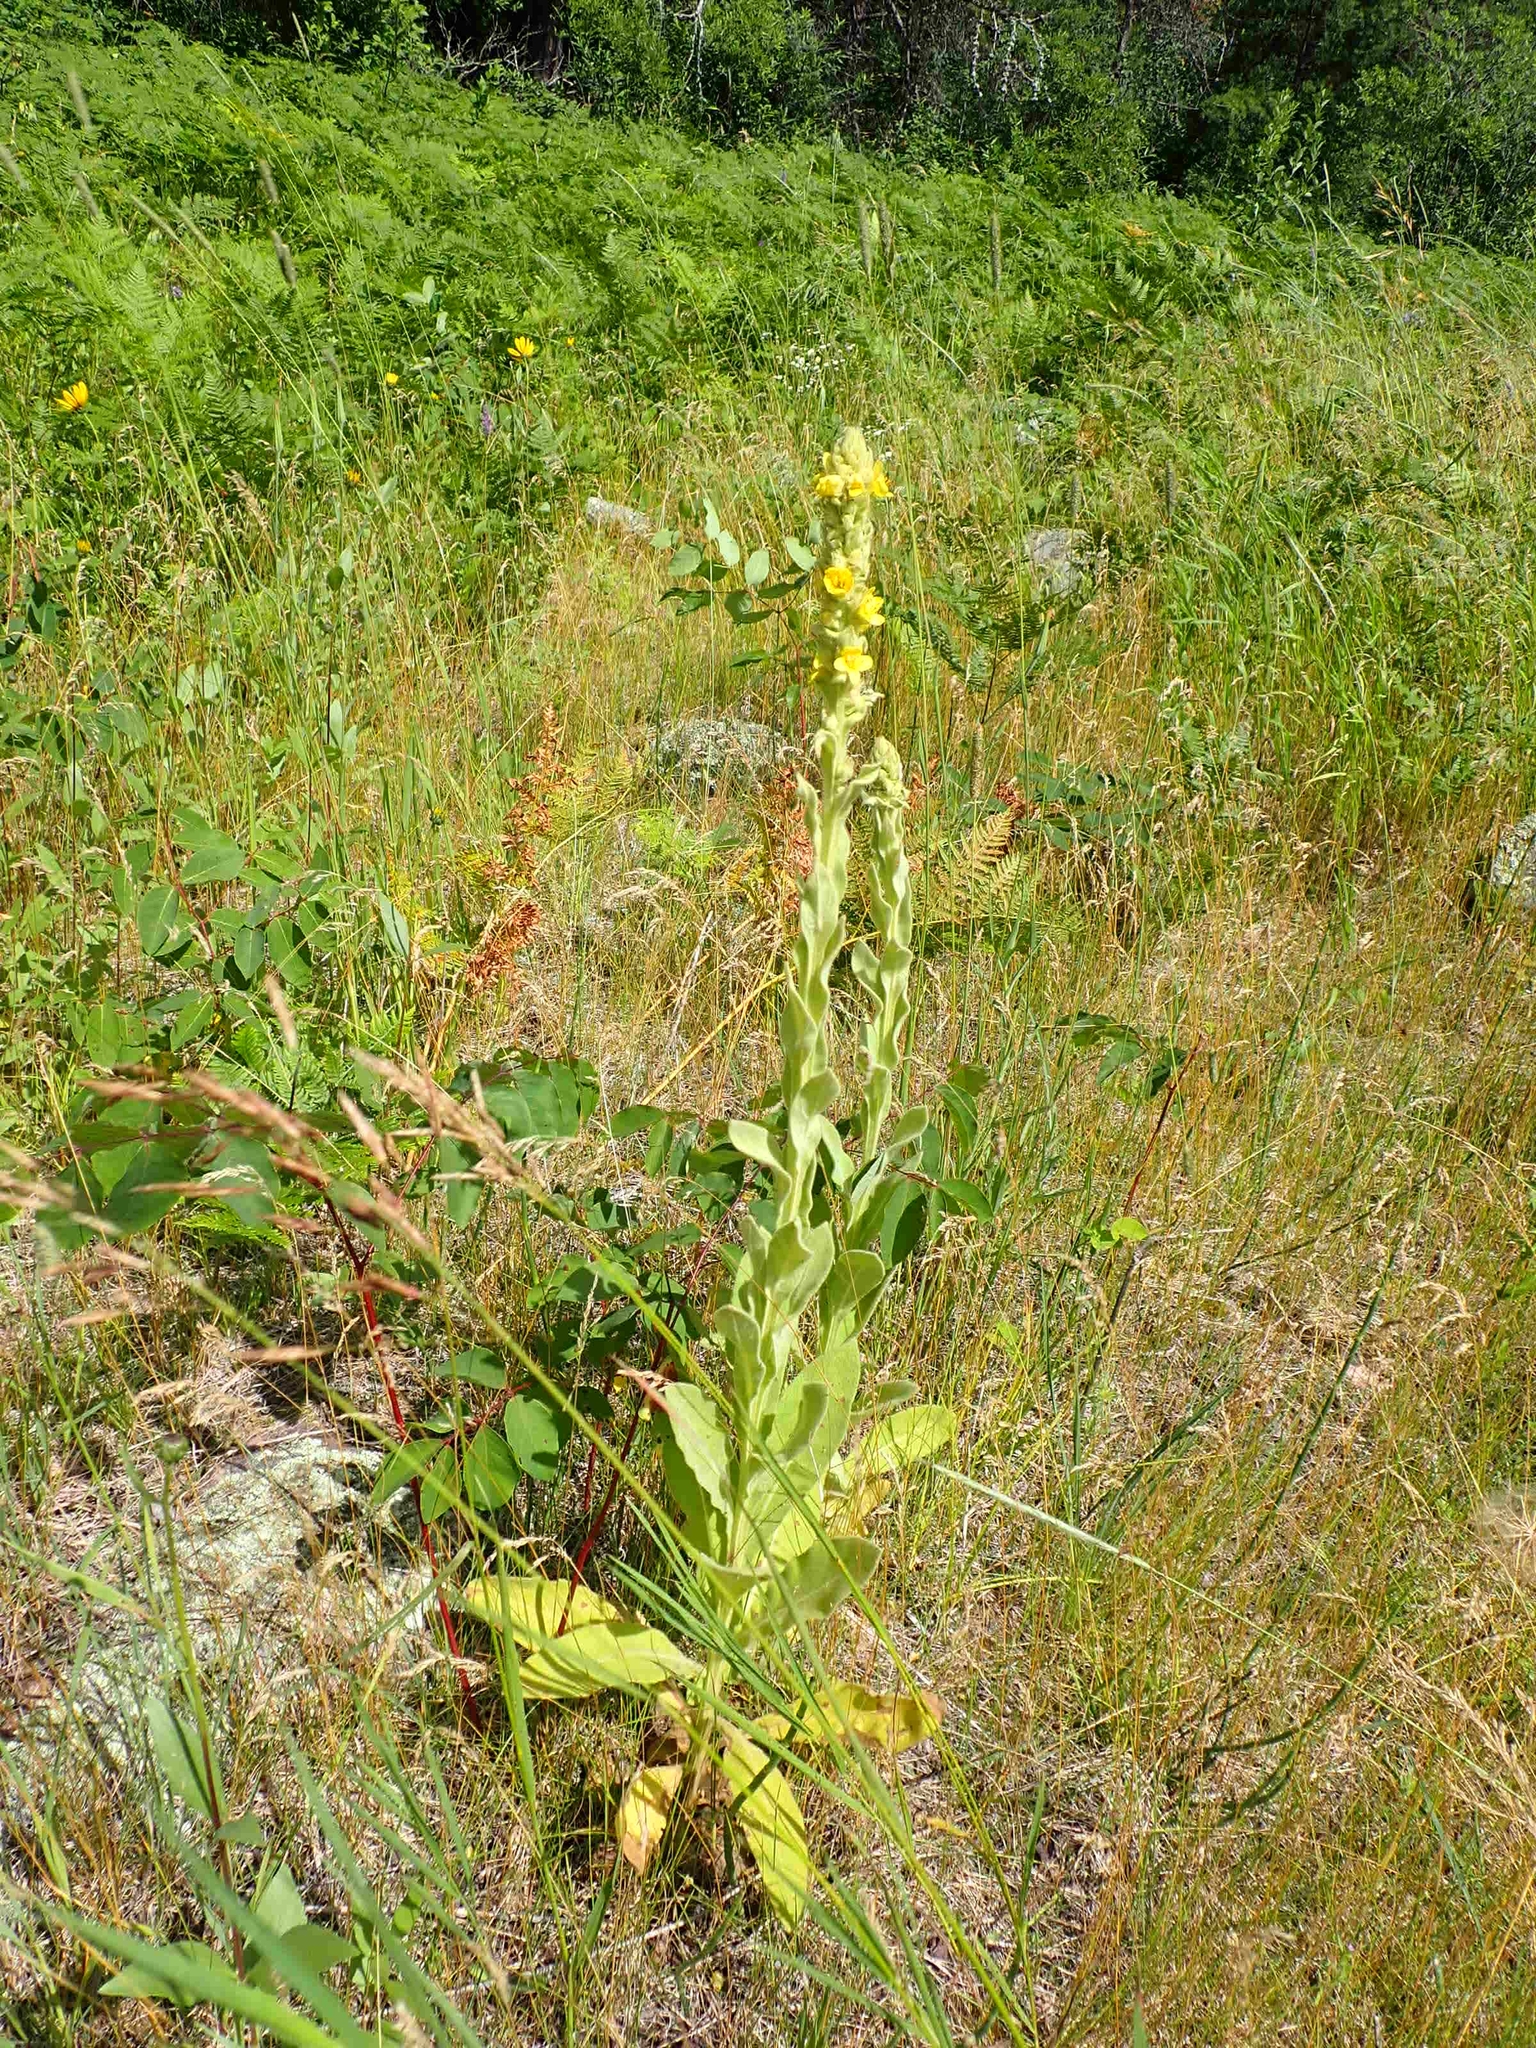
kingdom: Plantae
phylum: Tracheophyta
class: Magnoliopsida
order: Lamiales
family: Scrophulariaceae
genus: Verbascum
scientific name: Verbascum thapsus
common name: Common mullein
